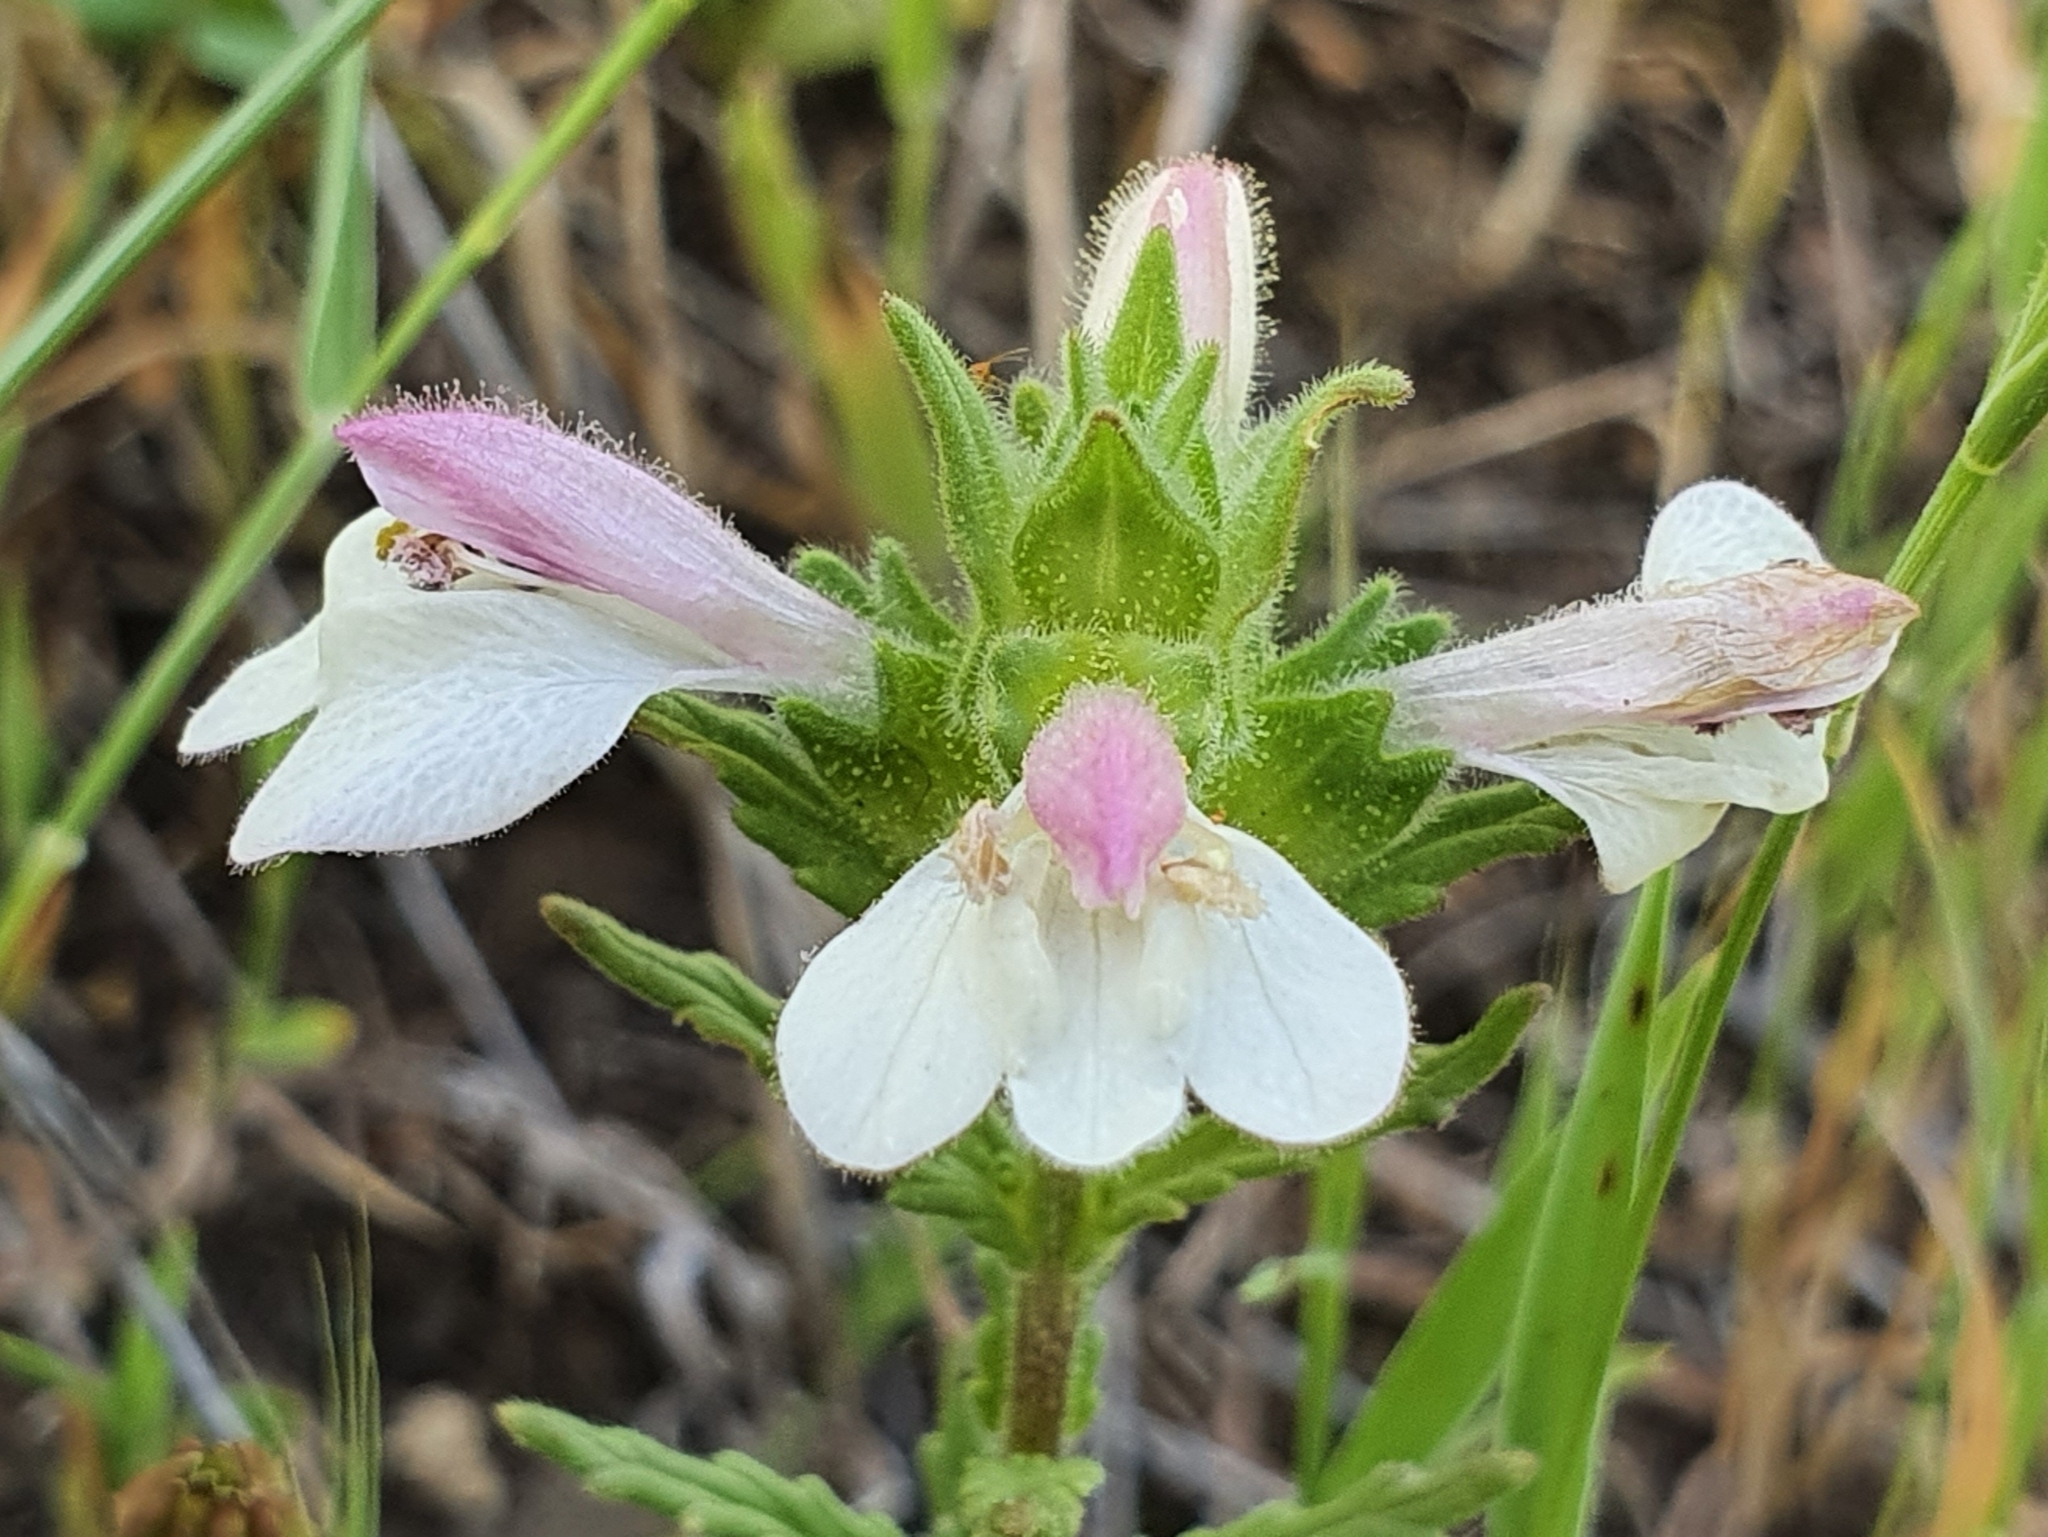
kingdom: Plantae
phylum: Tracheophyta
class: Magnoliopsida
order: Lamiales
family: Orobanchaceae
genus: Bellardia
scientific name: Bellardia trixago
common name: Mediterranean lineseed
